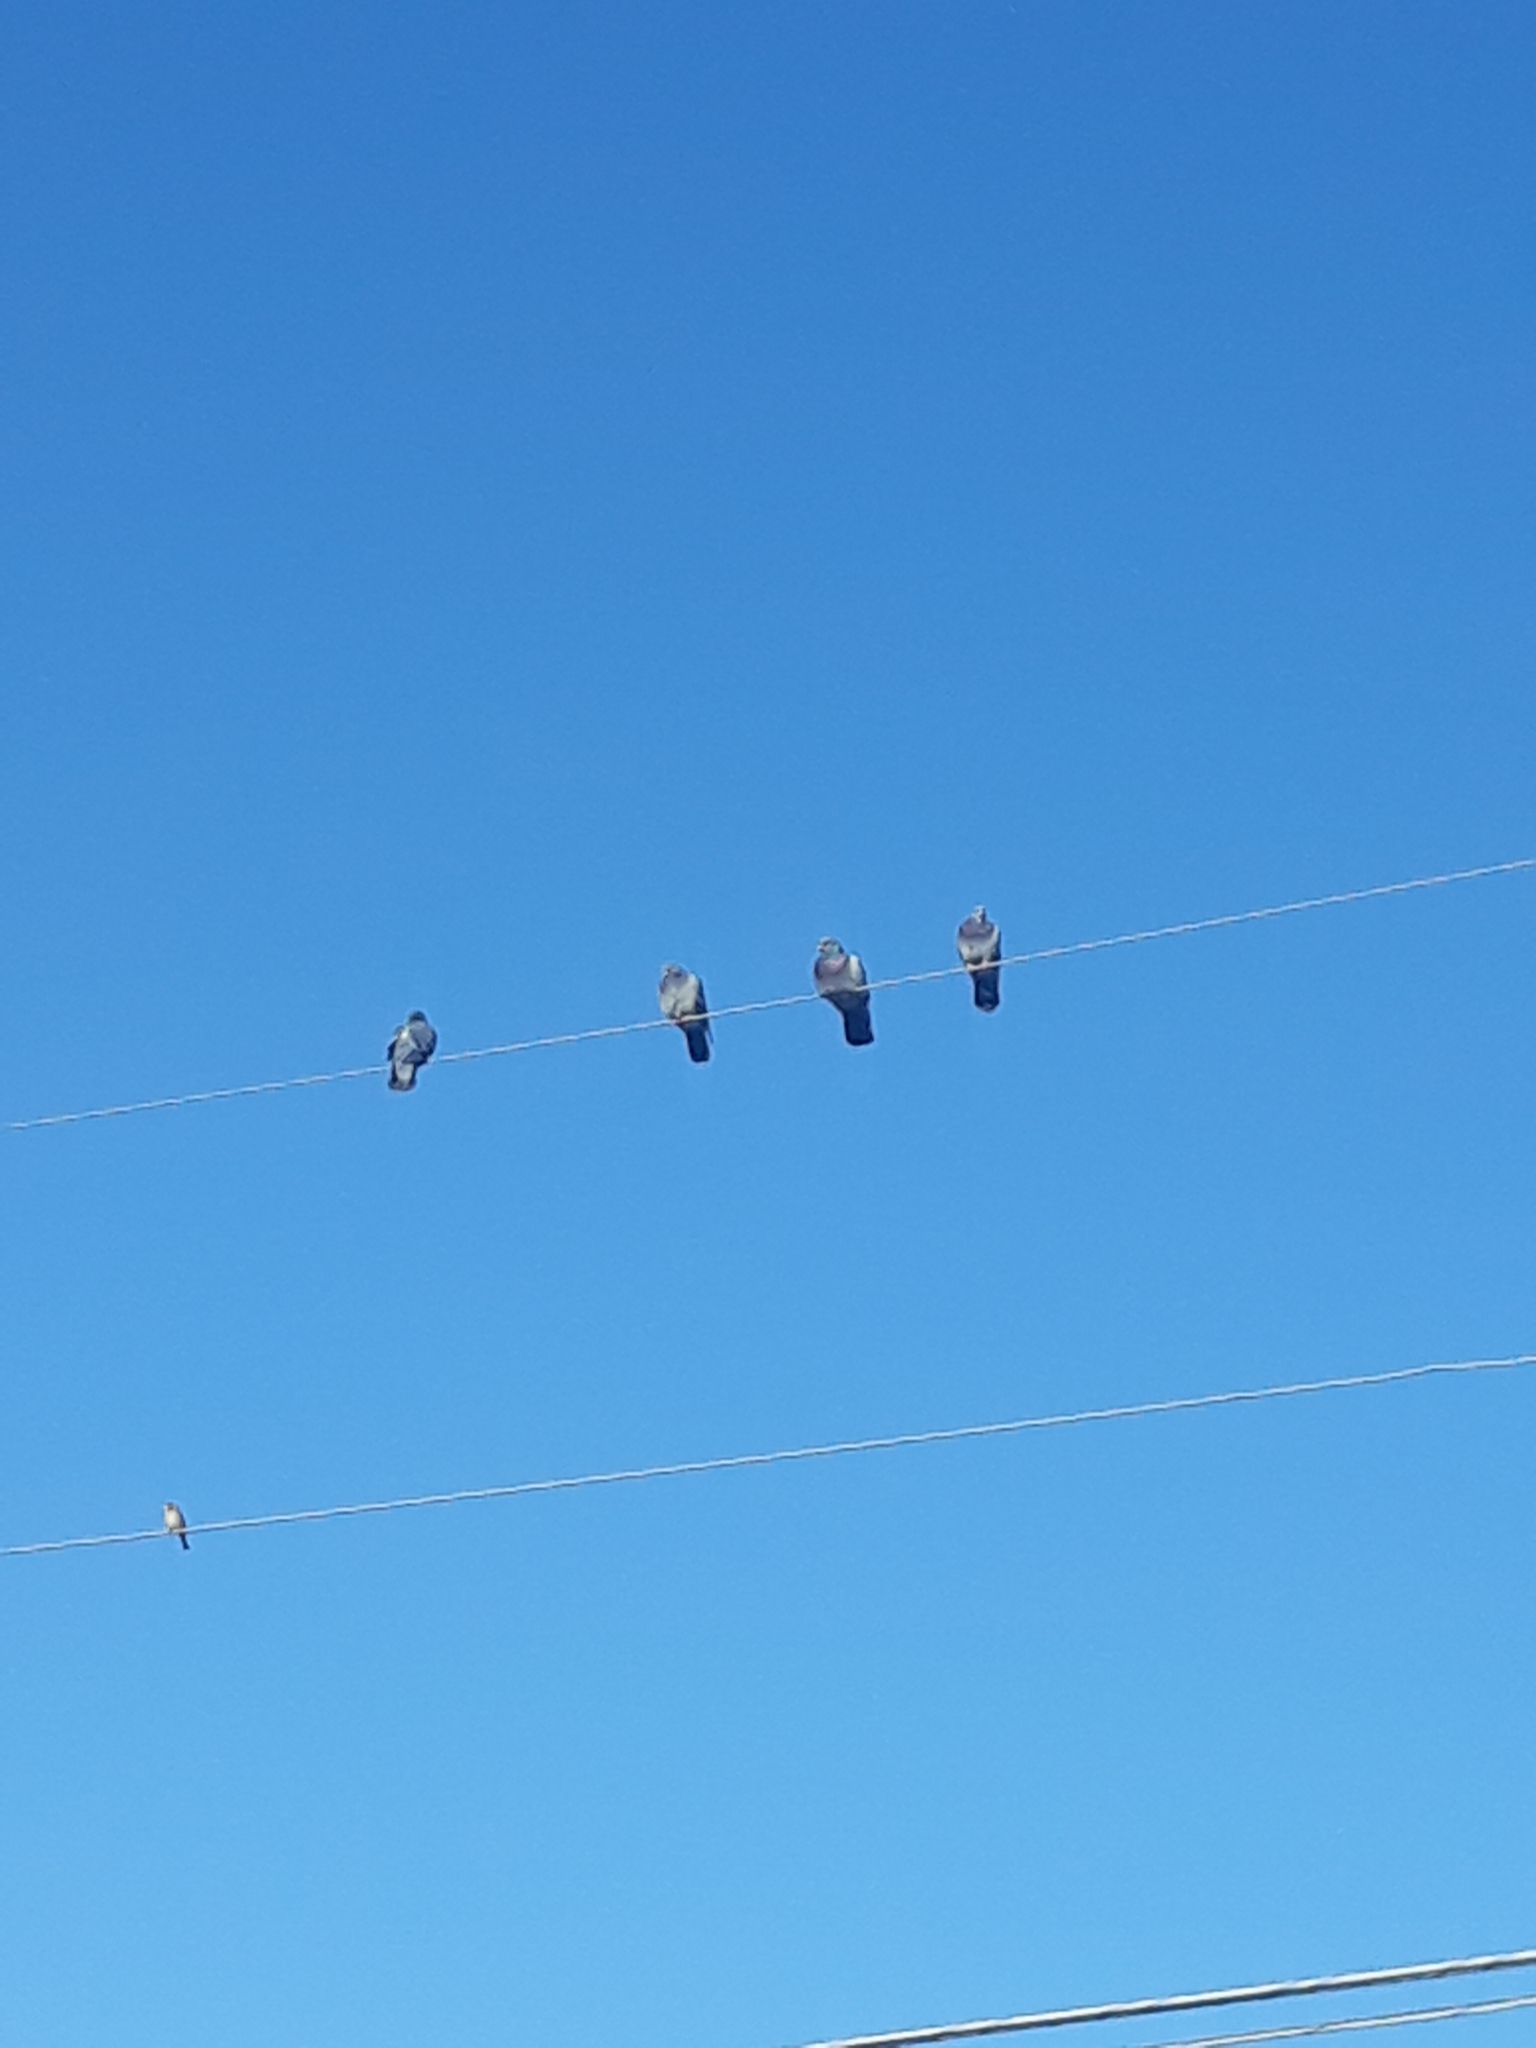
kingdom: Animalia
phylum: Chordata
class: Aves
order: Columbiformes
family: Columbidae
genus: Columba
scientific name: Columba livia
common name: Rock pigeon
